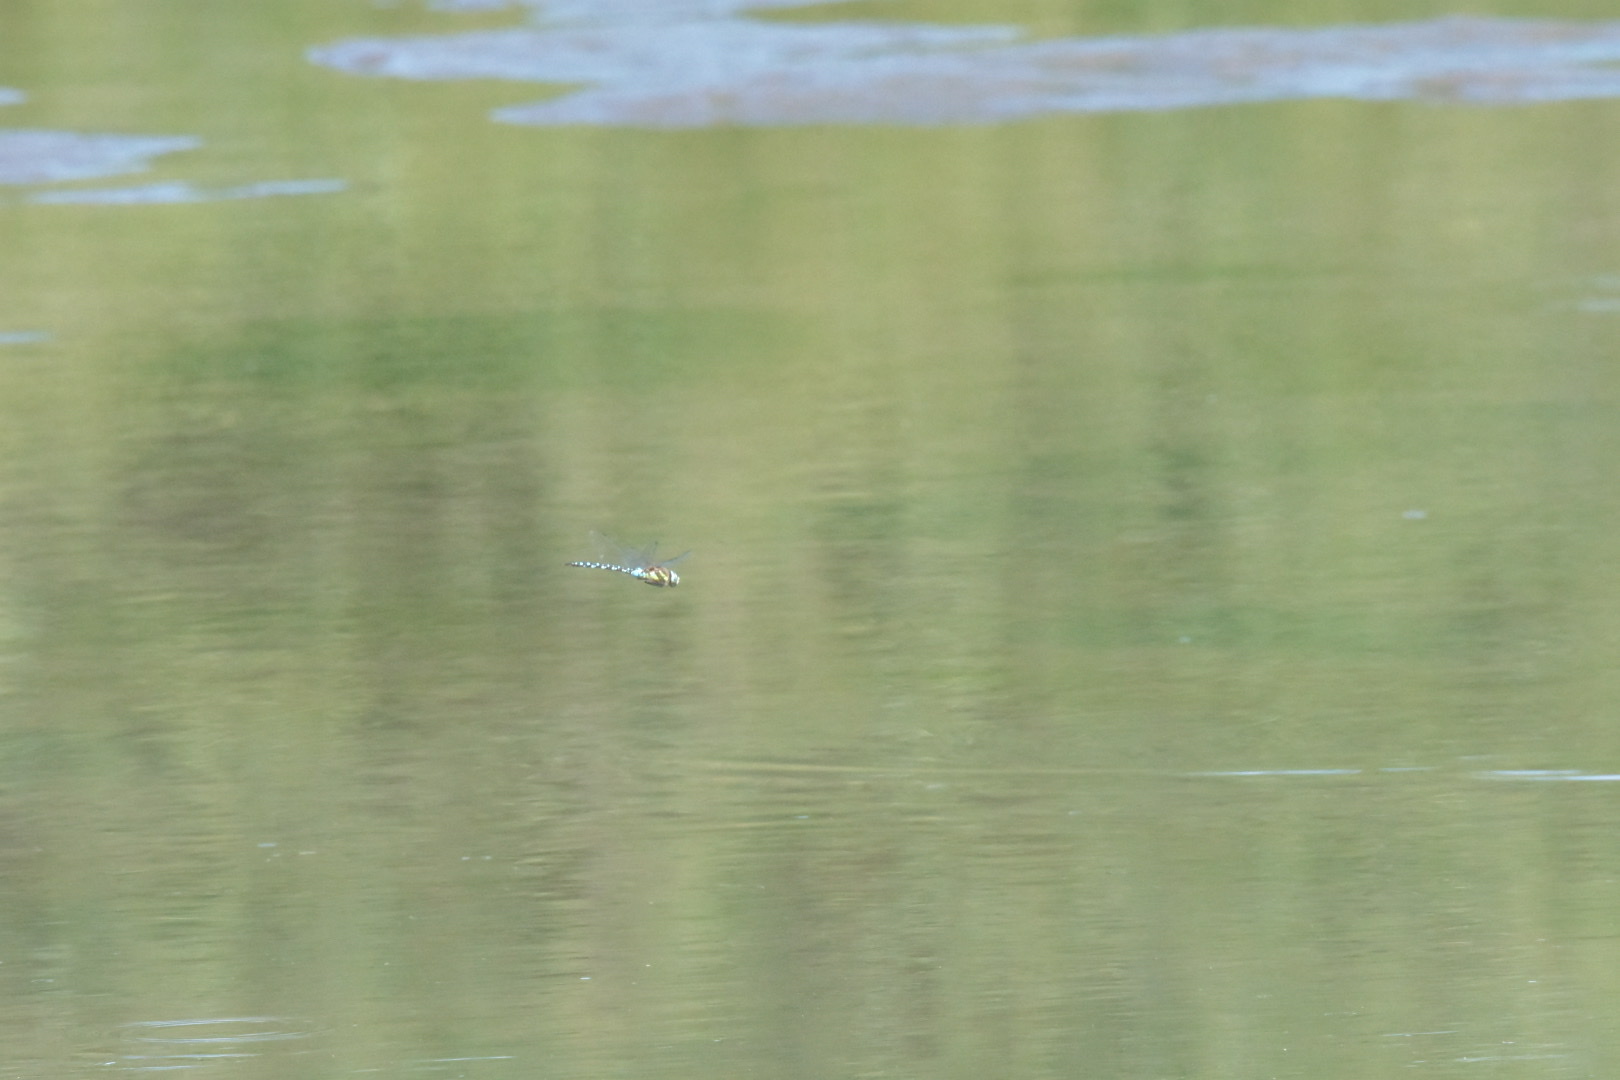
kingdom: Animalia
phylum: Arthropoda
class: Insecta
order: Odonata
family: Aeshnidae
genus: Aeshna
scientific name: Aeshna mixta
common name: Migrant hawker
